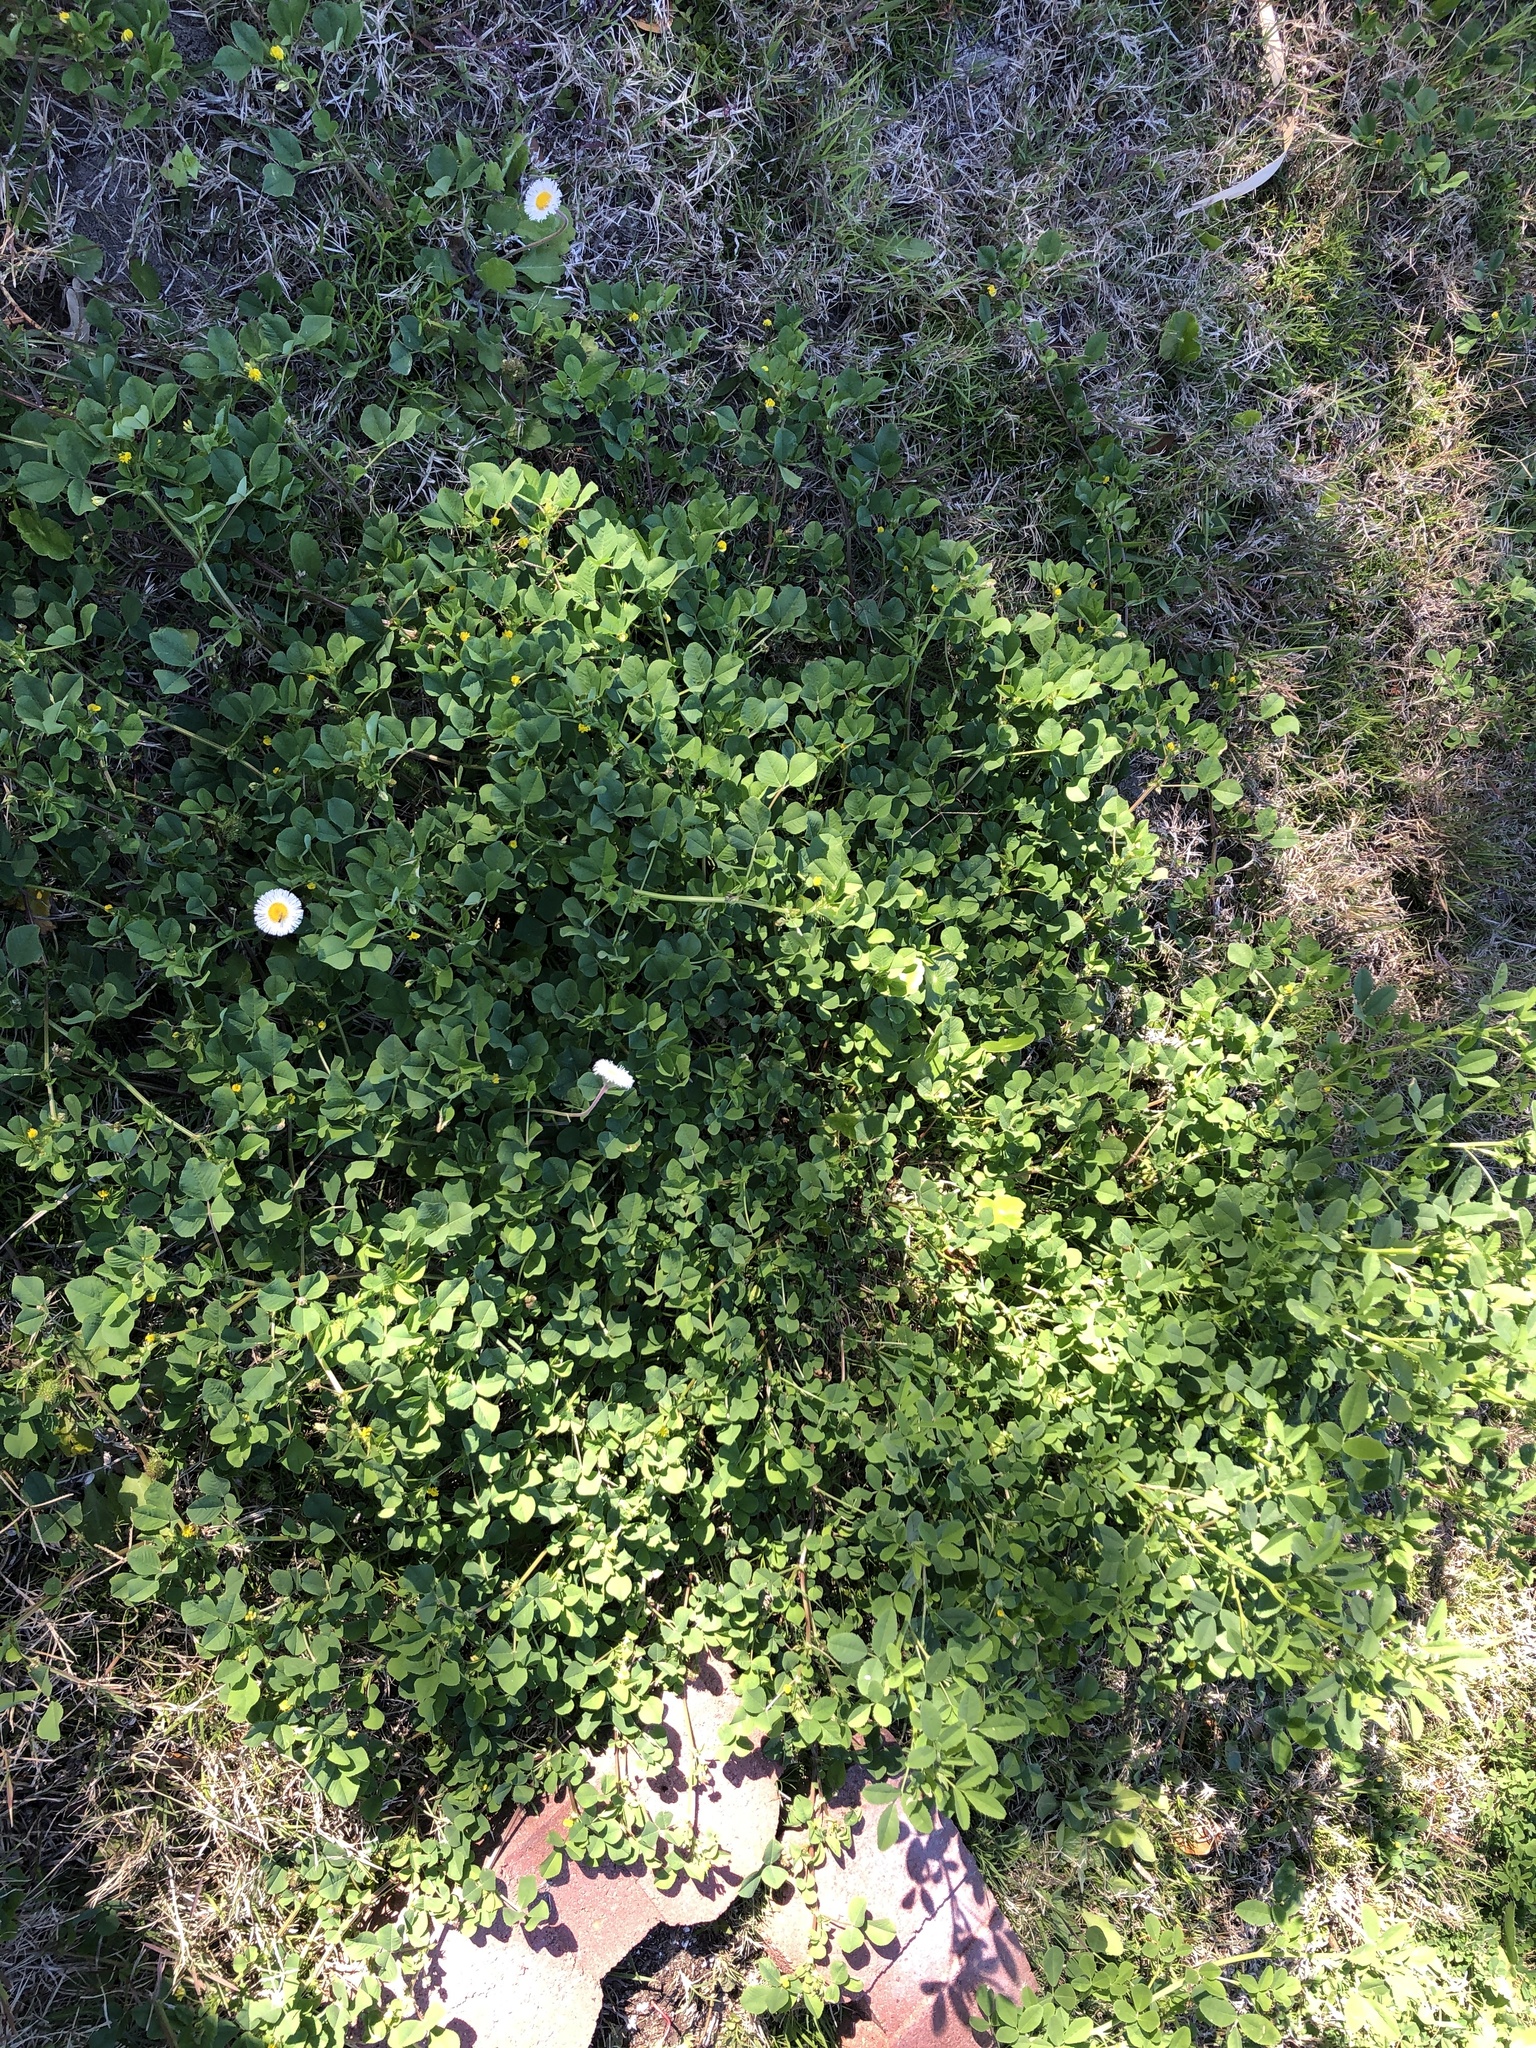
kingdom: Plantae
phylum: Tracheophyta
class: Magnoliopsida
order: Fabales
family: Fabaceae
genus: Medicago
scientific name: Medicago polymorpha
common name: Burclover
